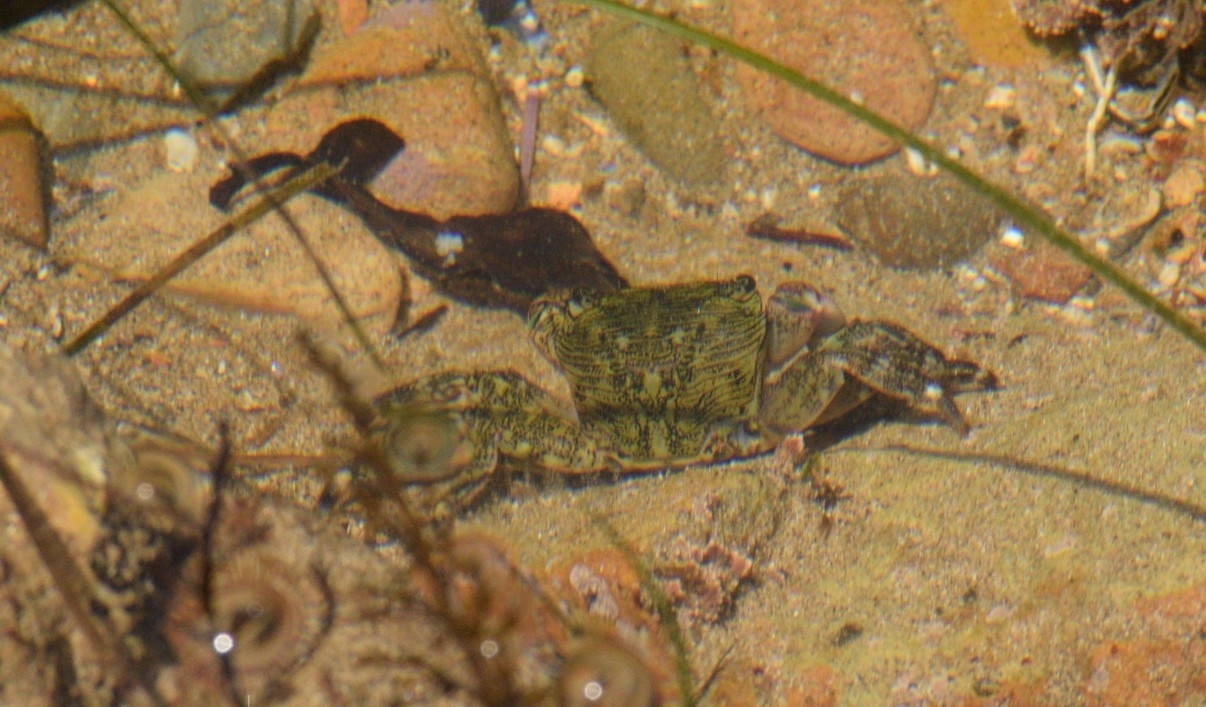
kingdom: Animalia
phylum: Arthropoda
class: Malacostraca
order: Decapoda
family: Grapsidae
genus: Pachygrapsus
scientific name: Pachygrapsus crassipes
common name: Striped shore crab
